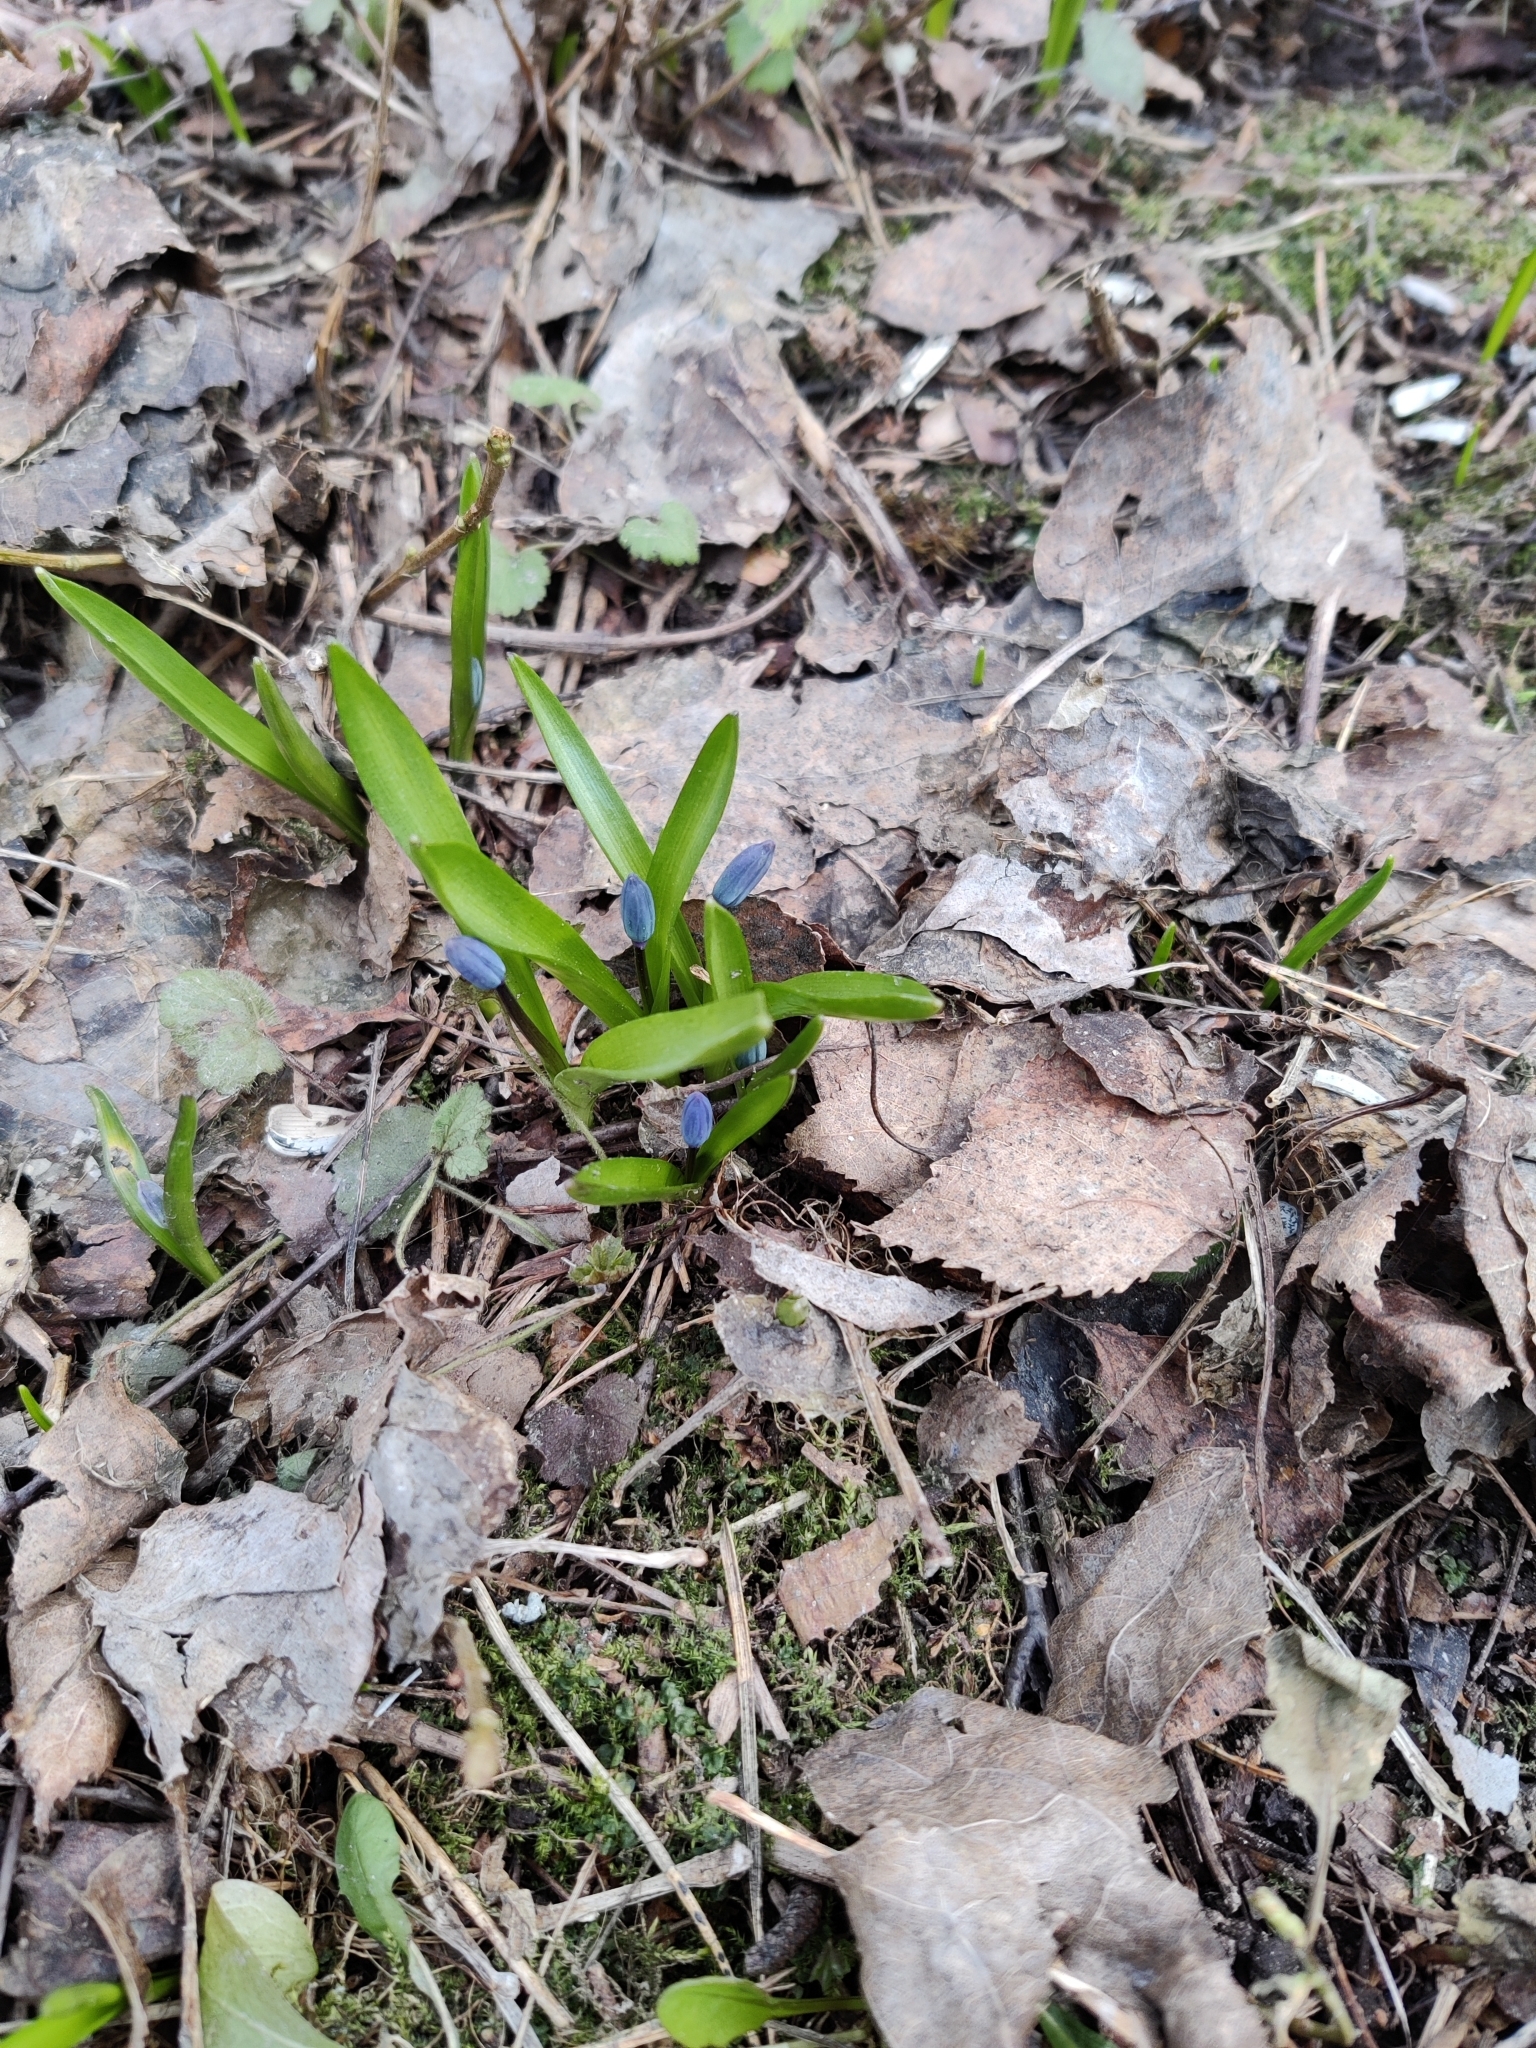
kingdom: Plantae
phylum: Tracheophyta
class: Liliopsida
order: Asparagales
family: Asparagaceae
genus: Scilla
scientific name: Scilla siberica
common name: Siberian squill
